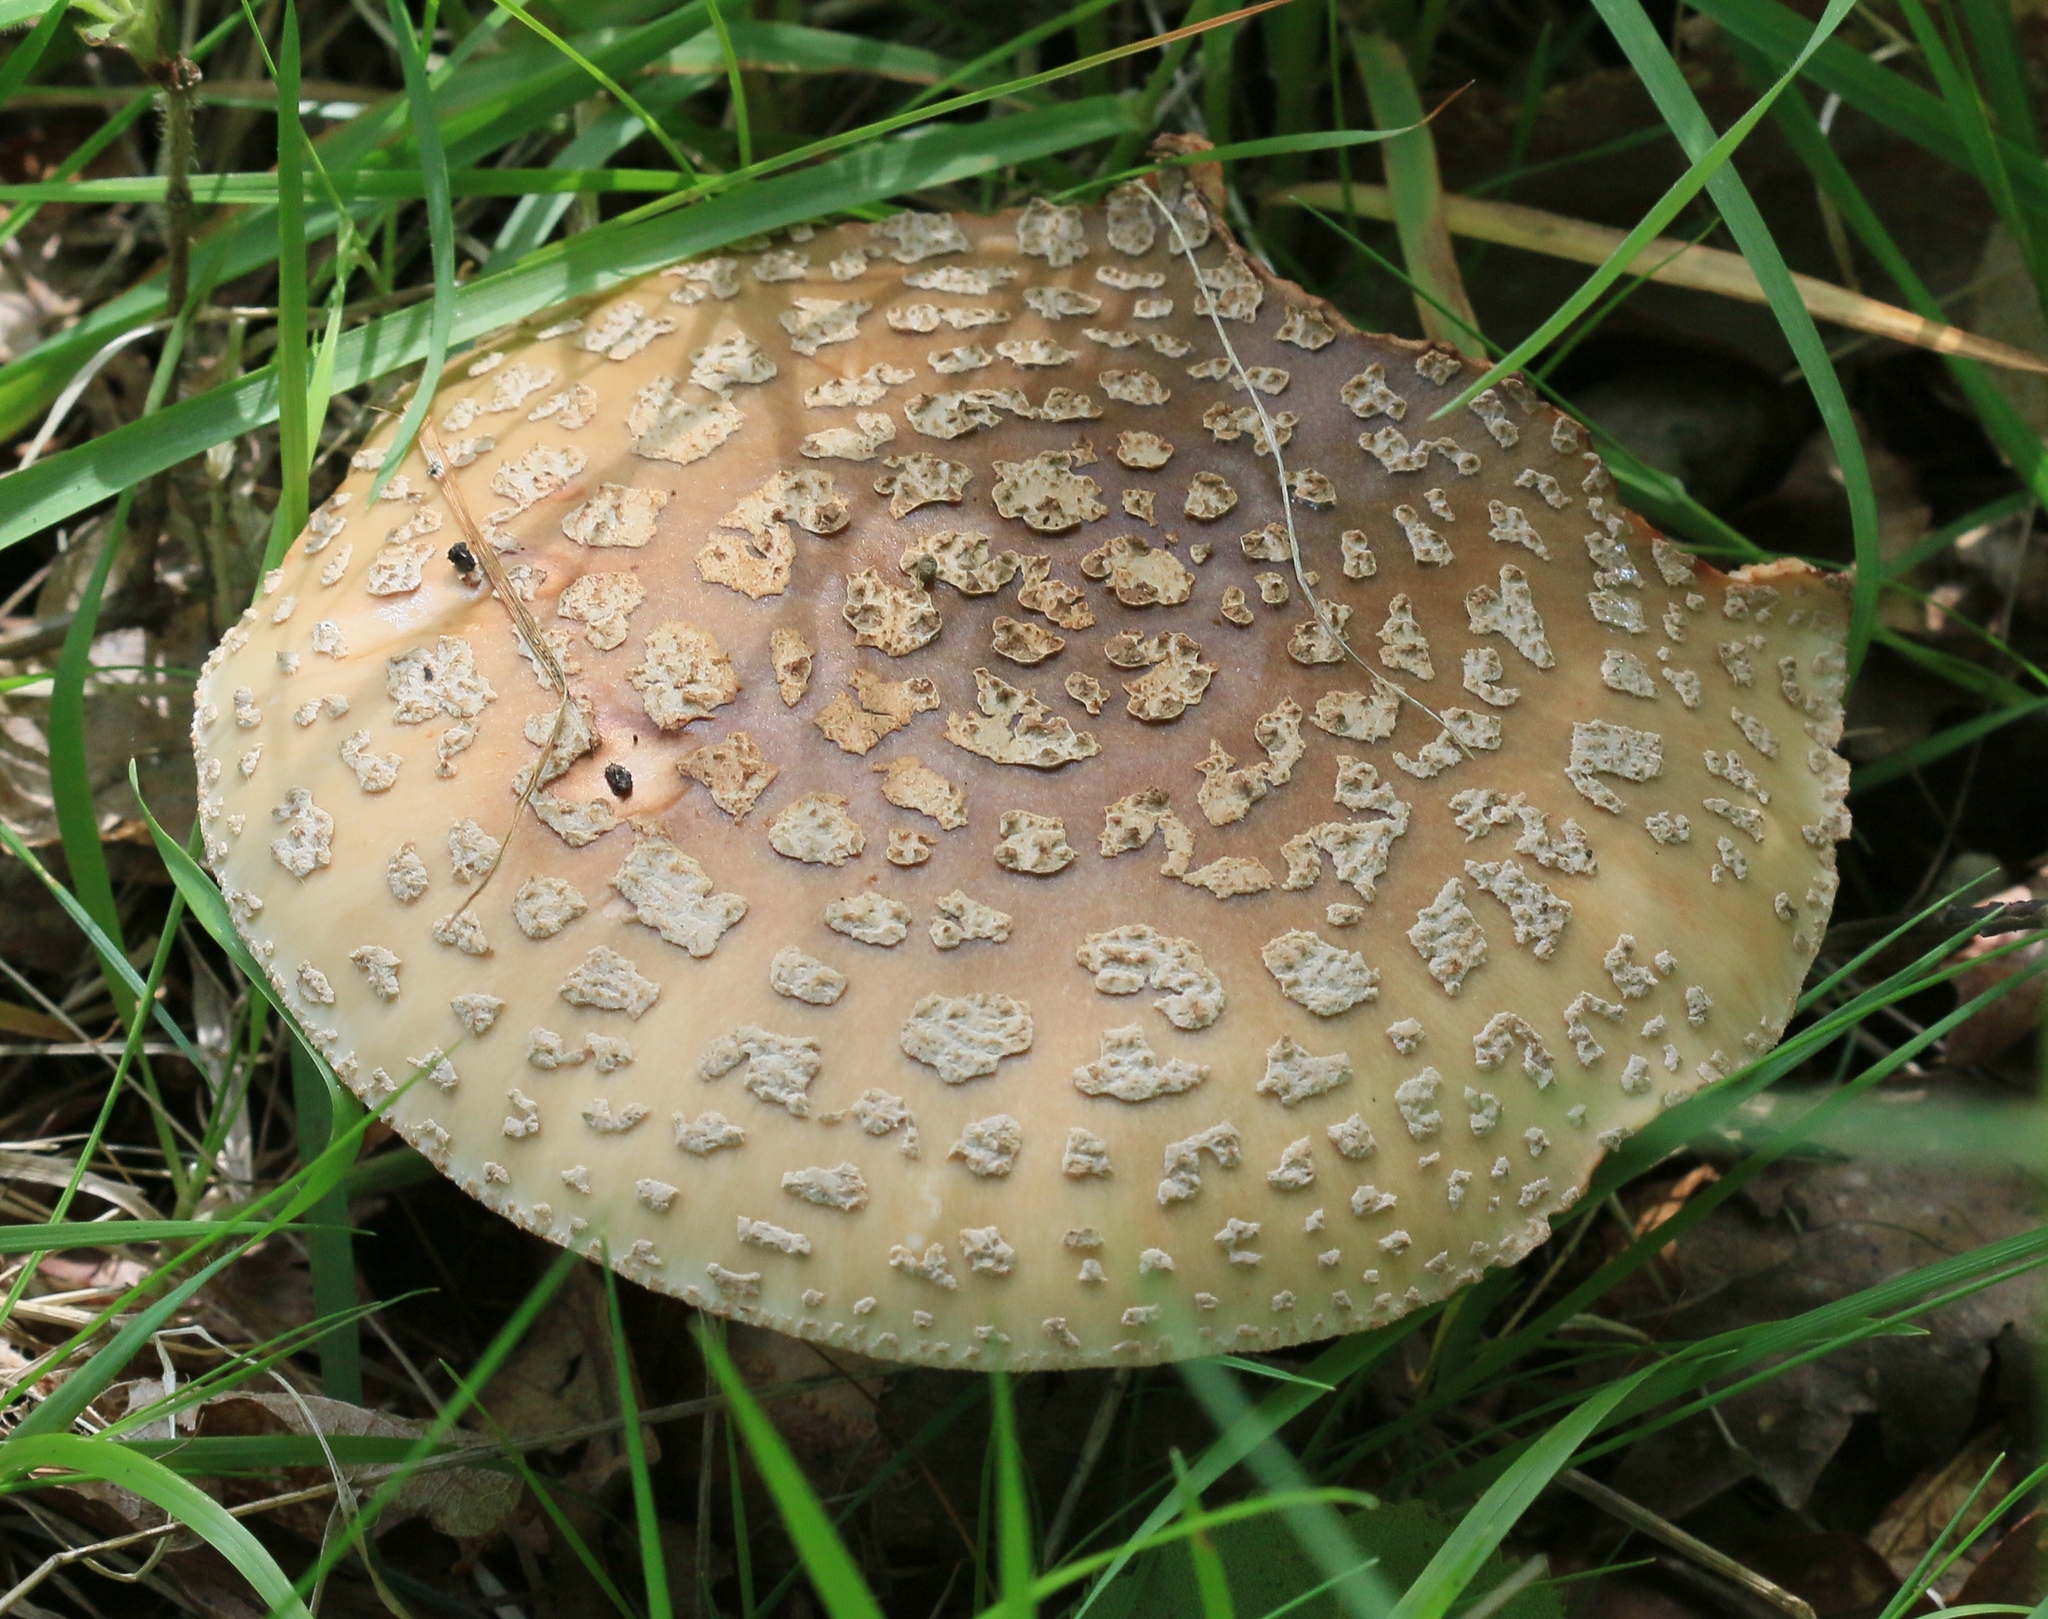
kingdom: Fungi
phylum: Basidiomycota
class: Agaricomycetes
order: Agaricales
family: Amanitaceae
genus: Amanita
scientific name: Amanita rubescens
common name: Blusher
